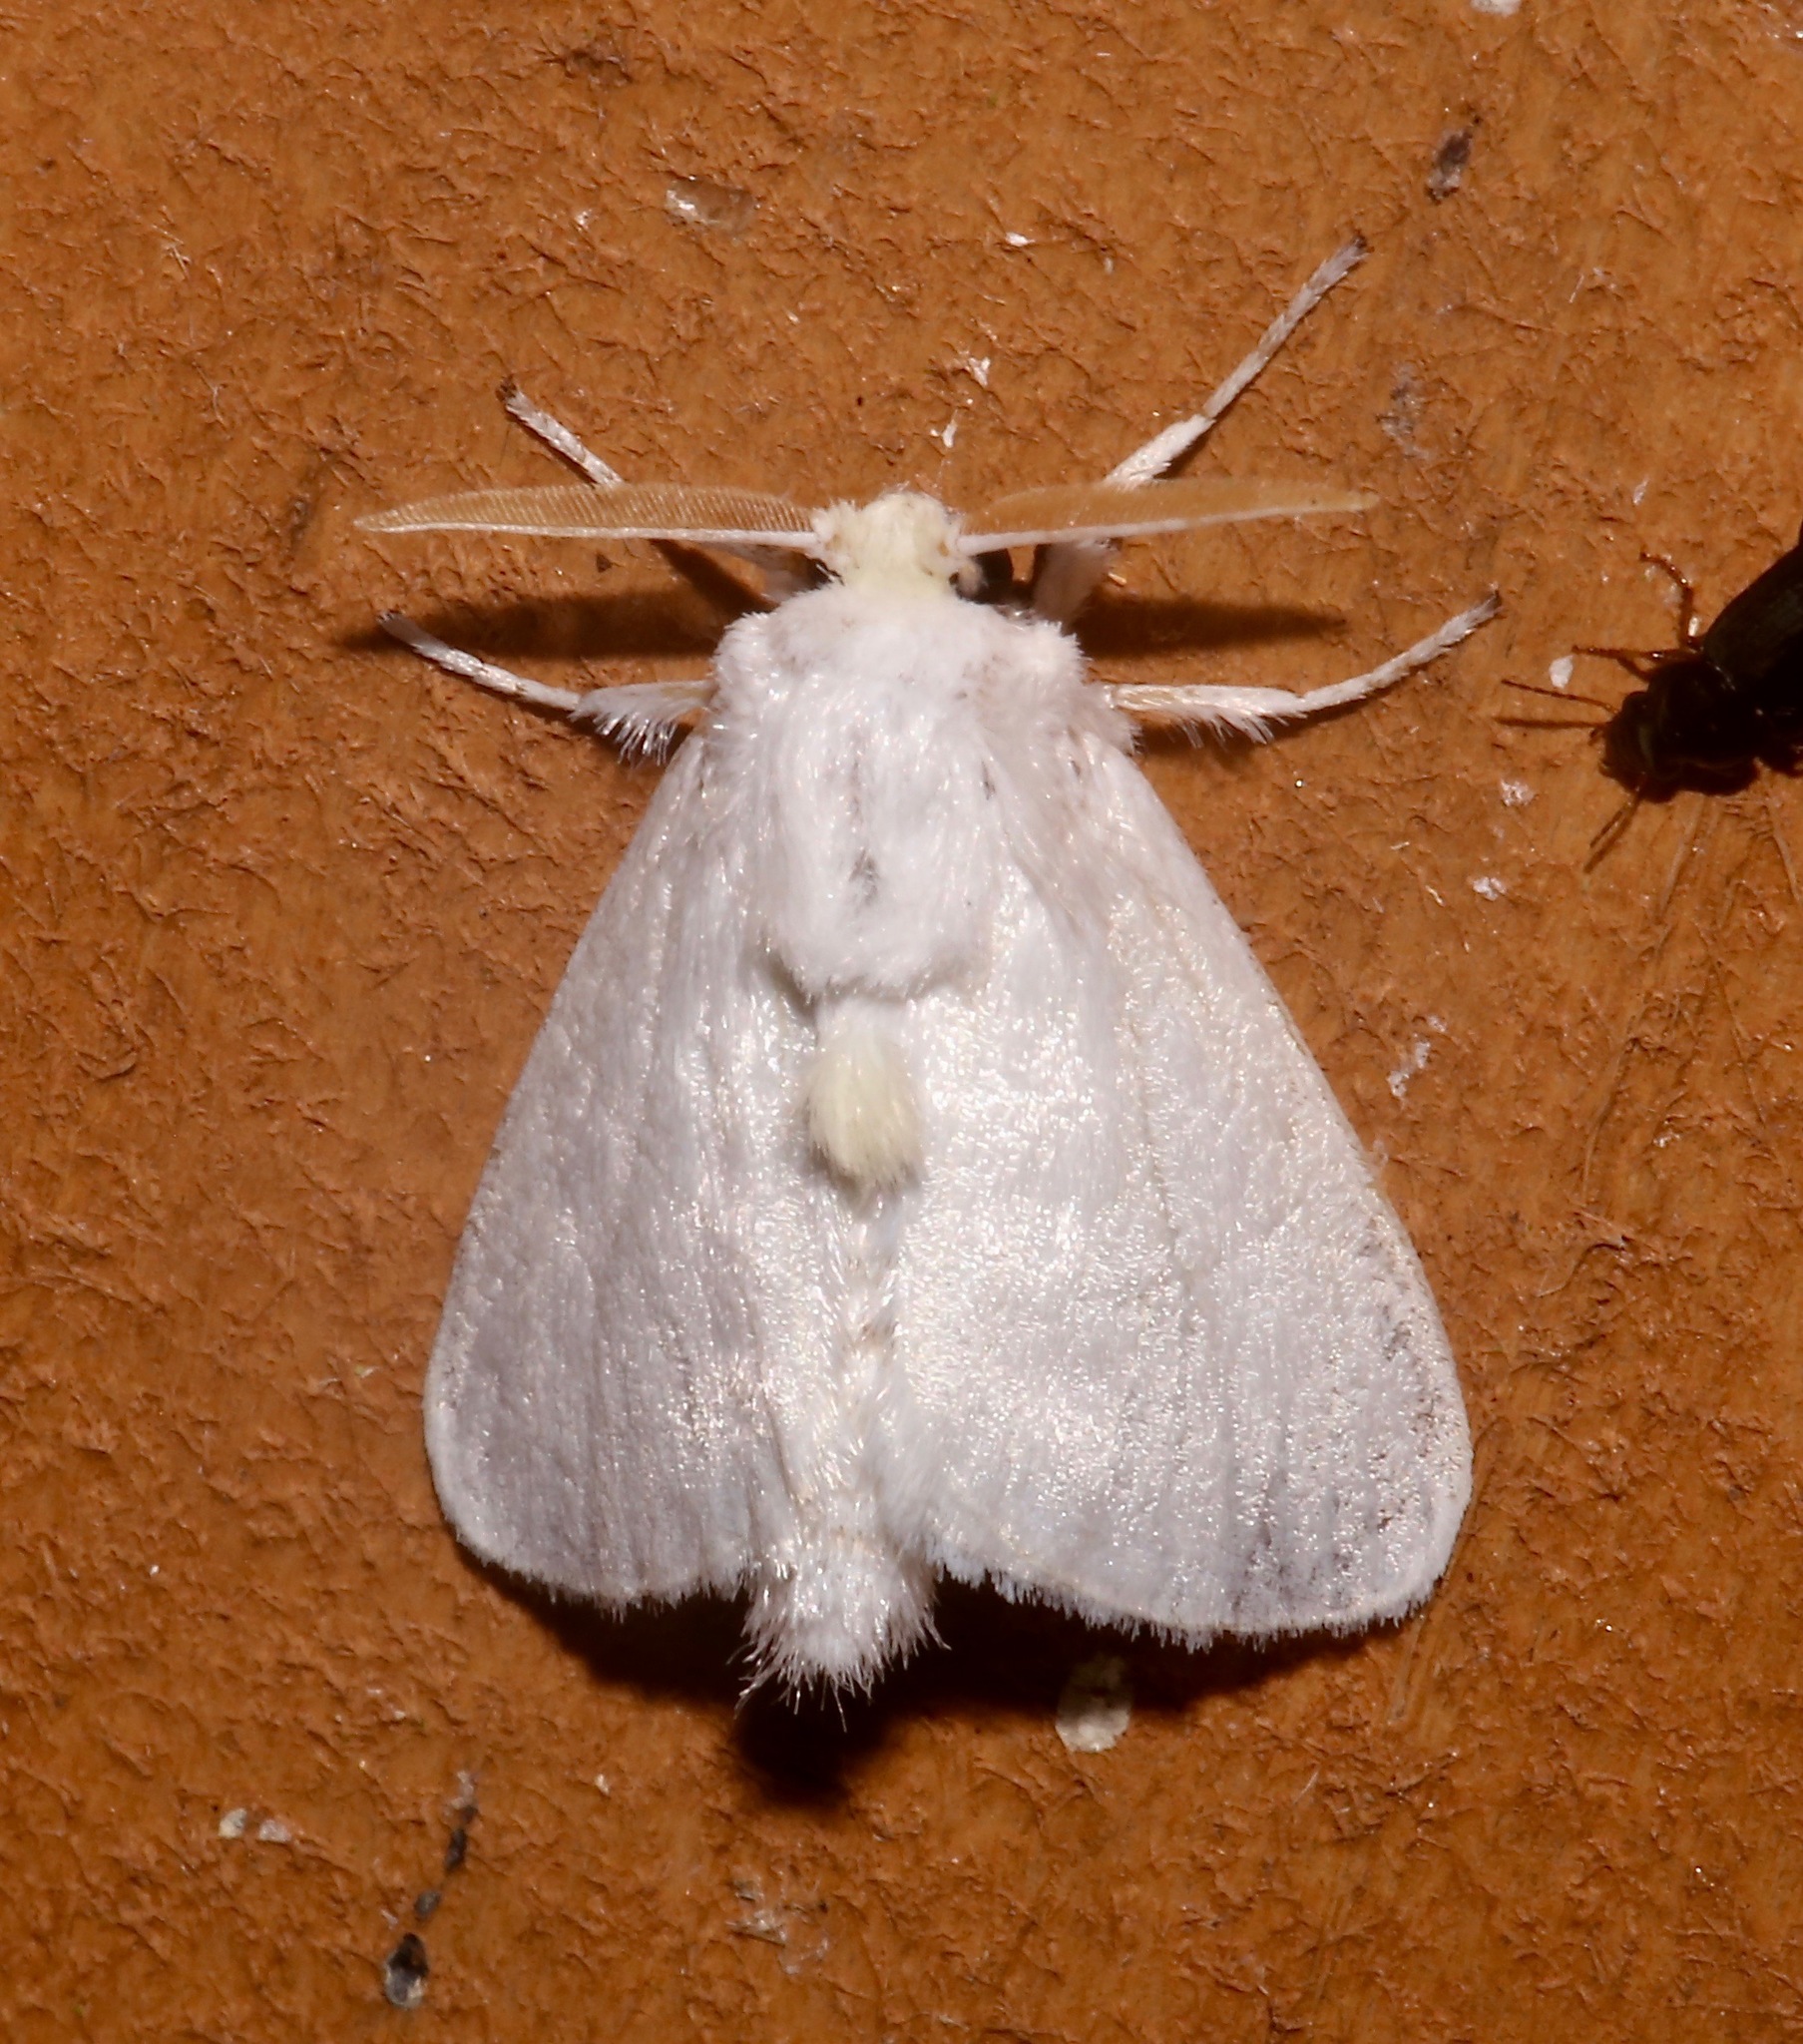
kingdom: Animalia
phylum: Arthropoda
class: Insecta
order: Lepidoptera
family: Megalopygidae
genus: Norape
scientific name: Norape cretata
